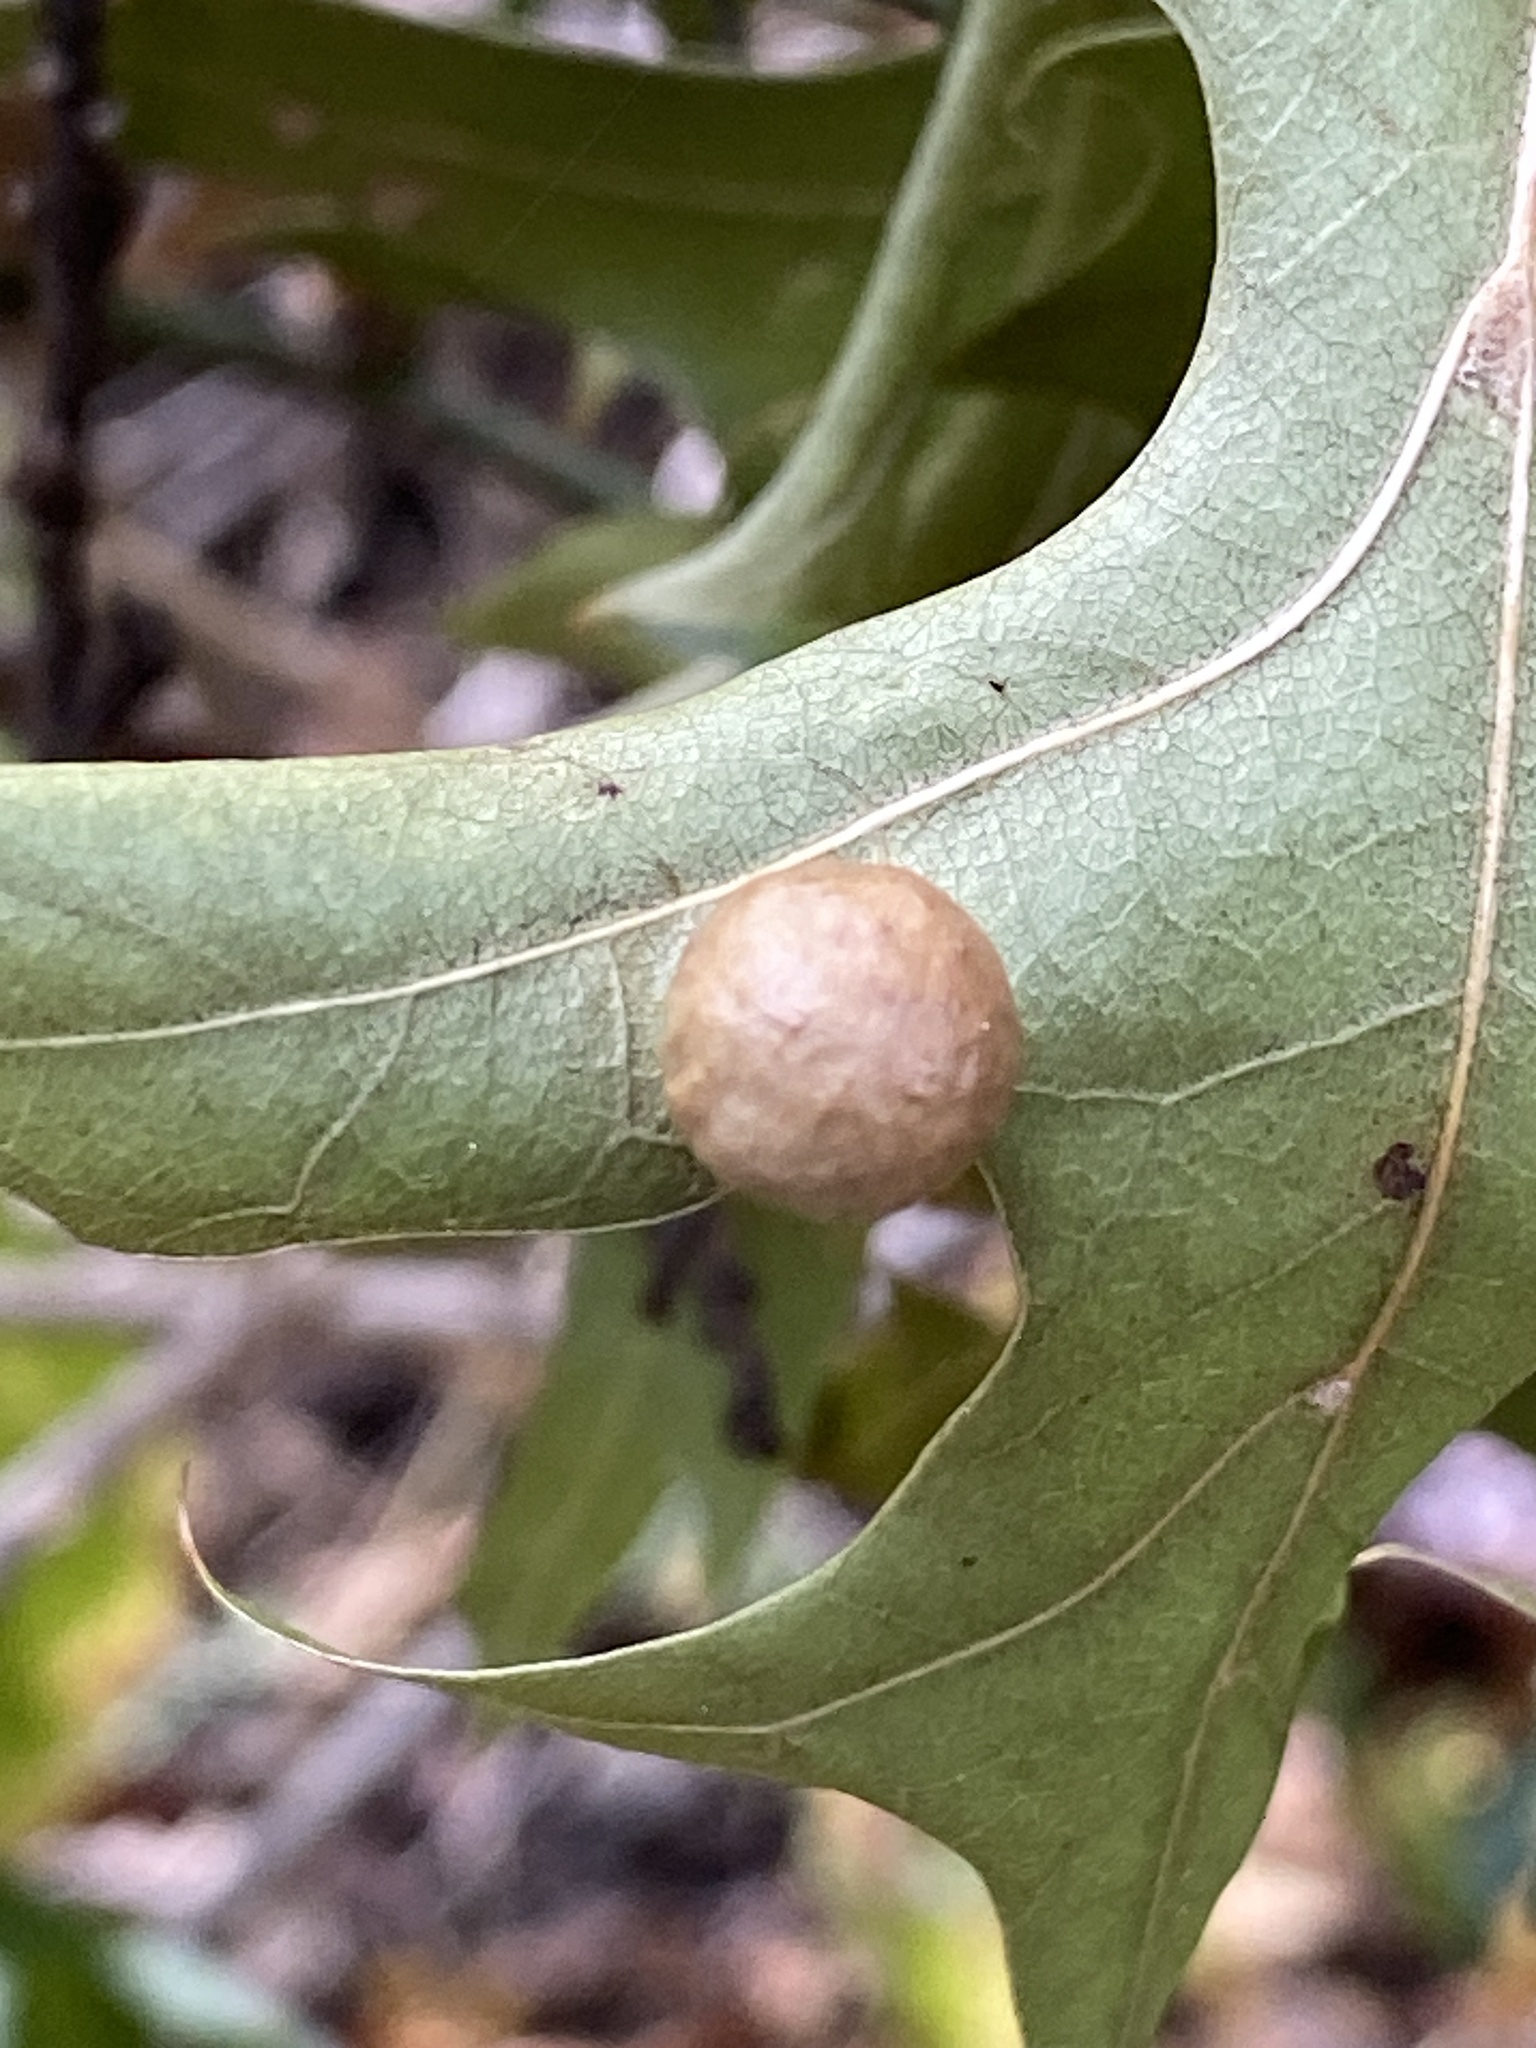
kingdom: Animalia
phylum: Arthropoda
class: Insecta
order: Hymenoptera
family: Cynipidae
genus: Amphibolips
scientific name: Amphibolips
